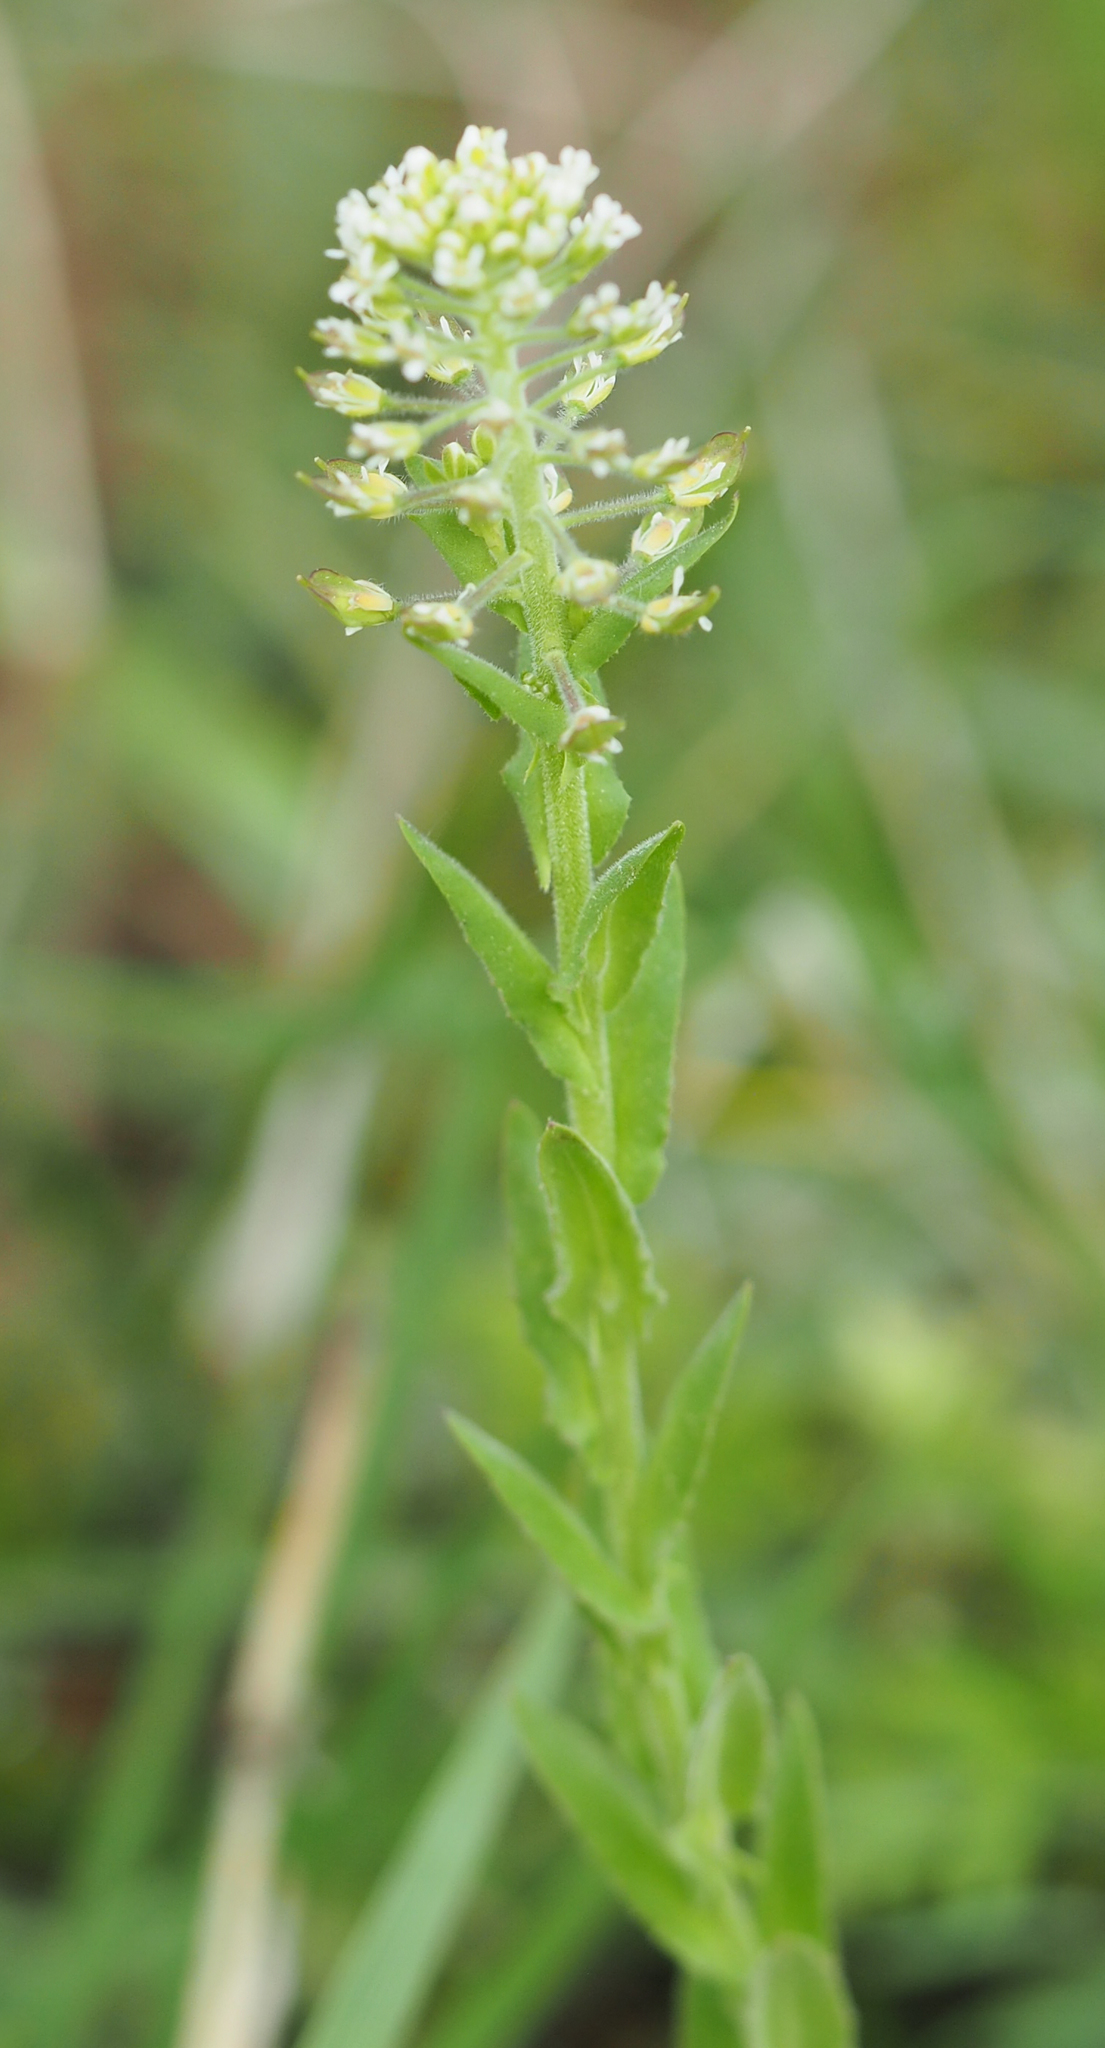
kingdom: Plantae
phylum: Tracheophyta
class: Magnoliopsida
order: Brassicales
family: Brassicaceae
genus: Lepidium
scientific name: Lepidium campestre
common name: Field pepperwort
